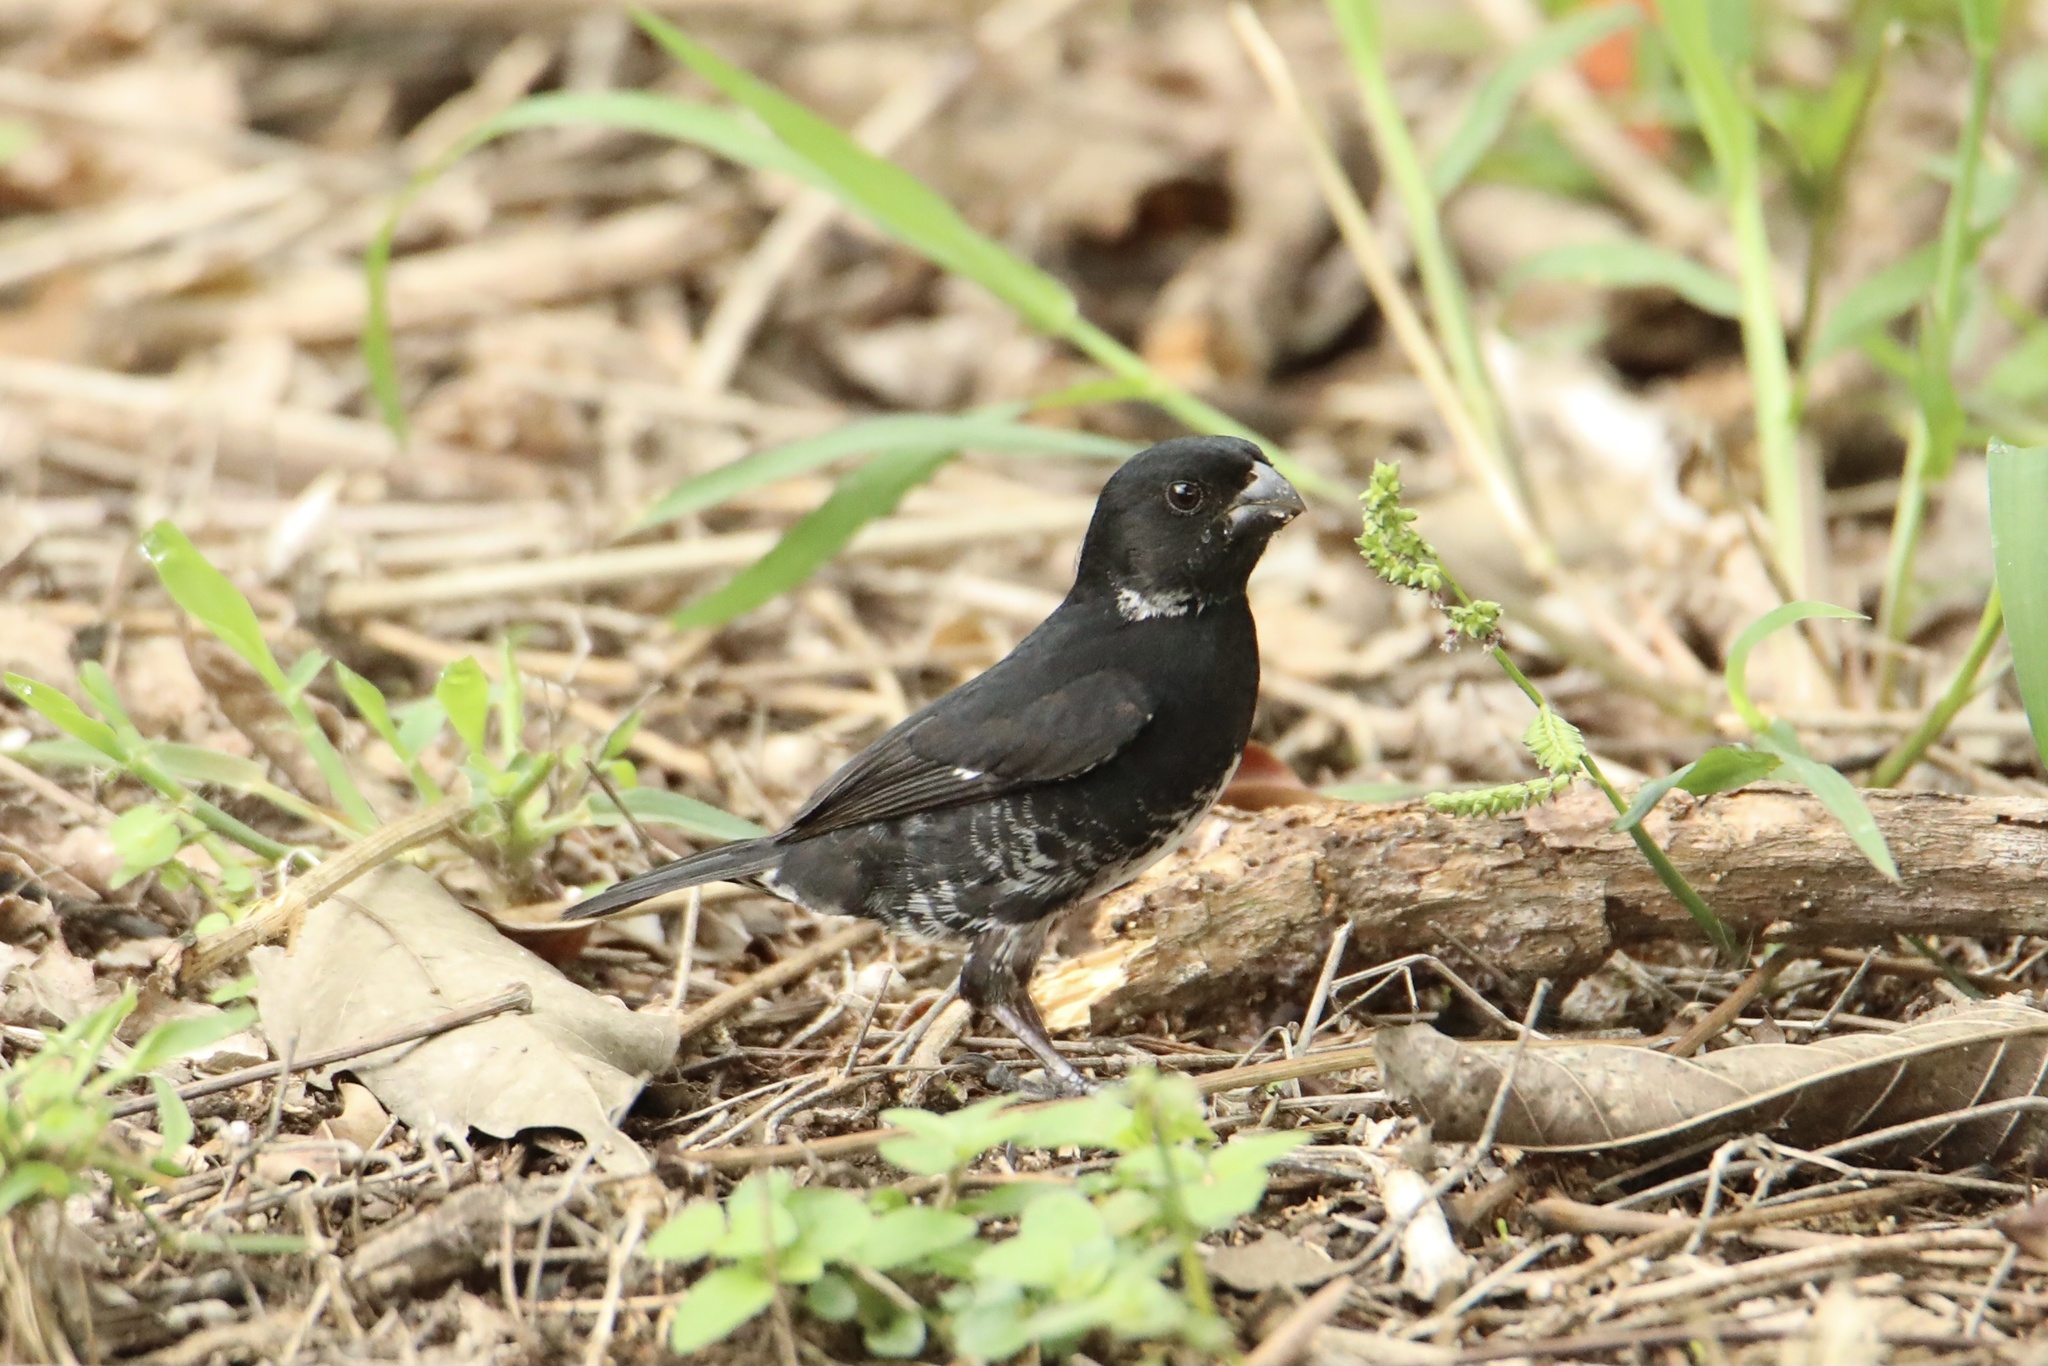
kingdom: Animalia
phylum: Chordata
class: Aves
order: Passeriformes
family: Thraupidae
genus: Sporophila
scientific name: Sporophila corvina
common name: Variable seedeater
